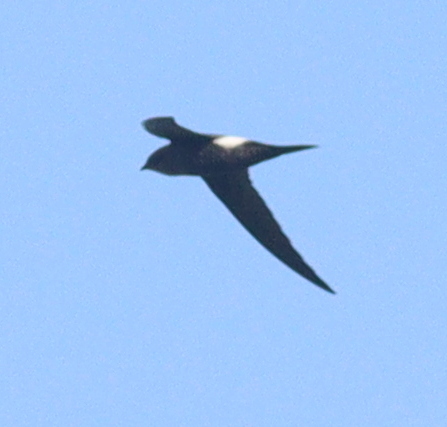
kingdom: Animalia
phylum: Chordata
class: Aves
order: Apodiformes
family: Apodidae
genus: Apus
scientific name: Apus pacificus
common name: Pacific swift
